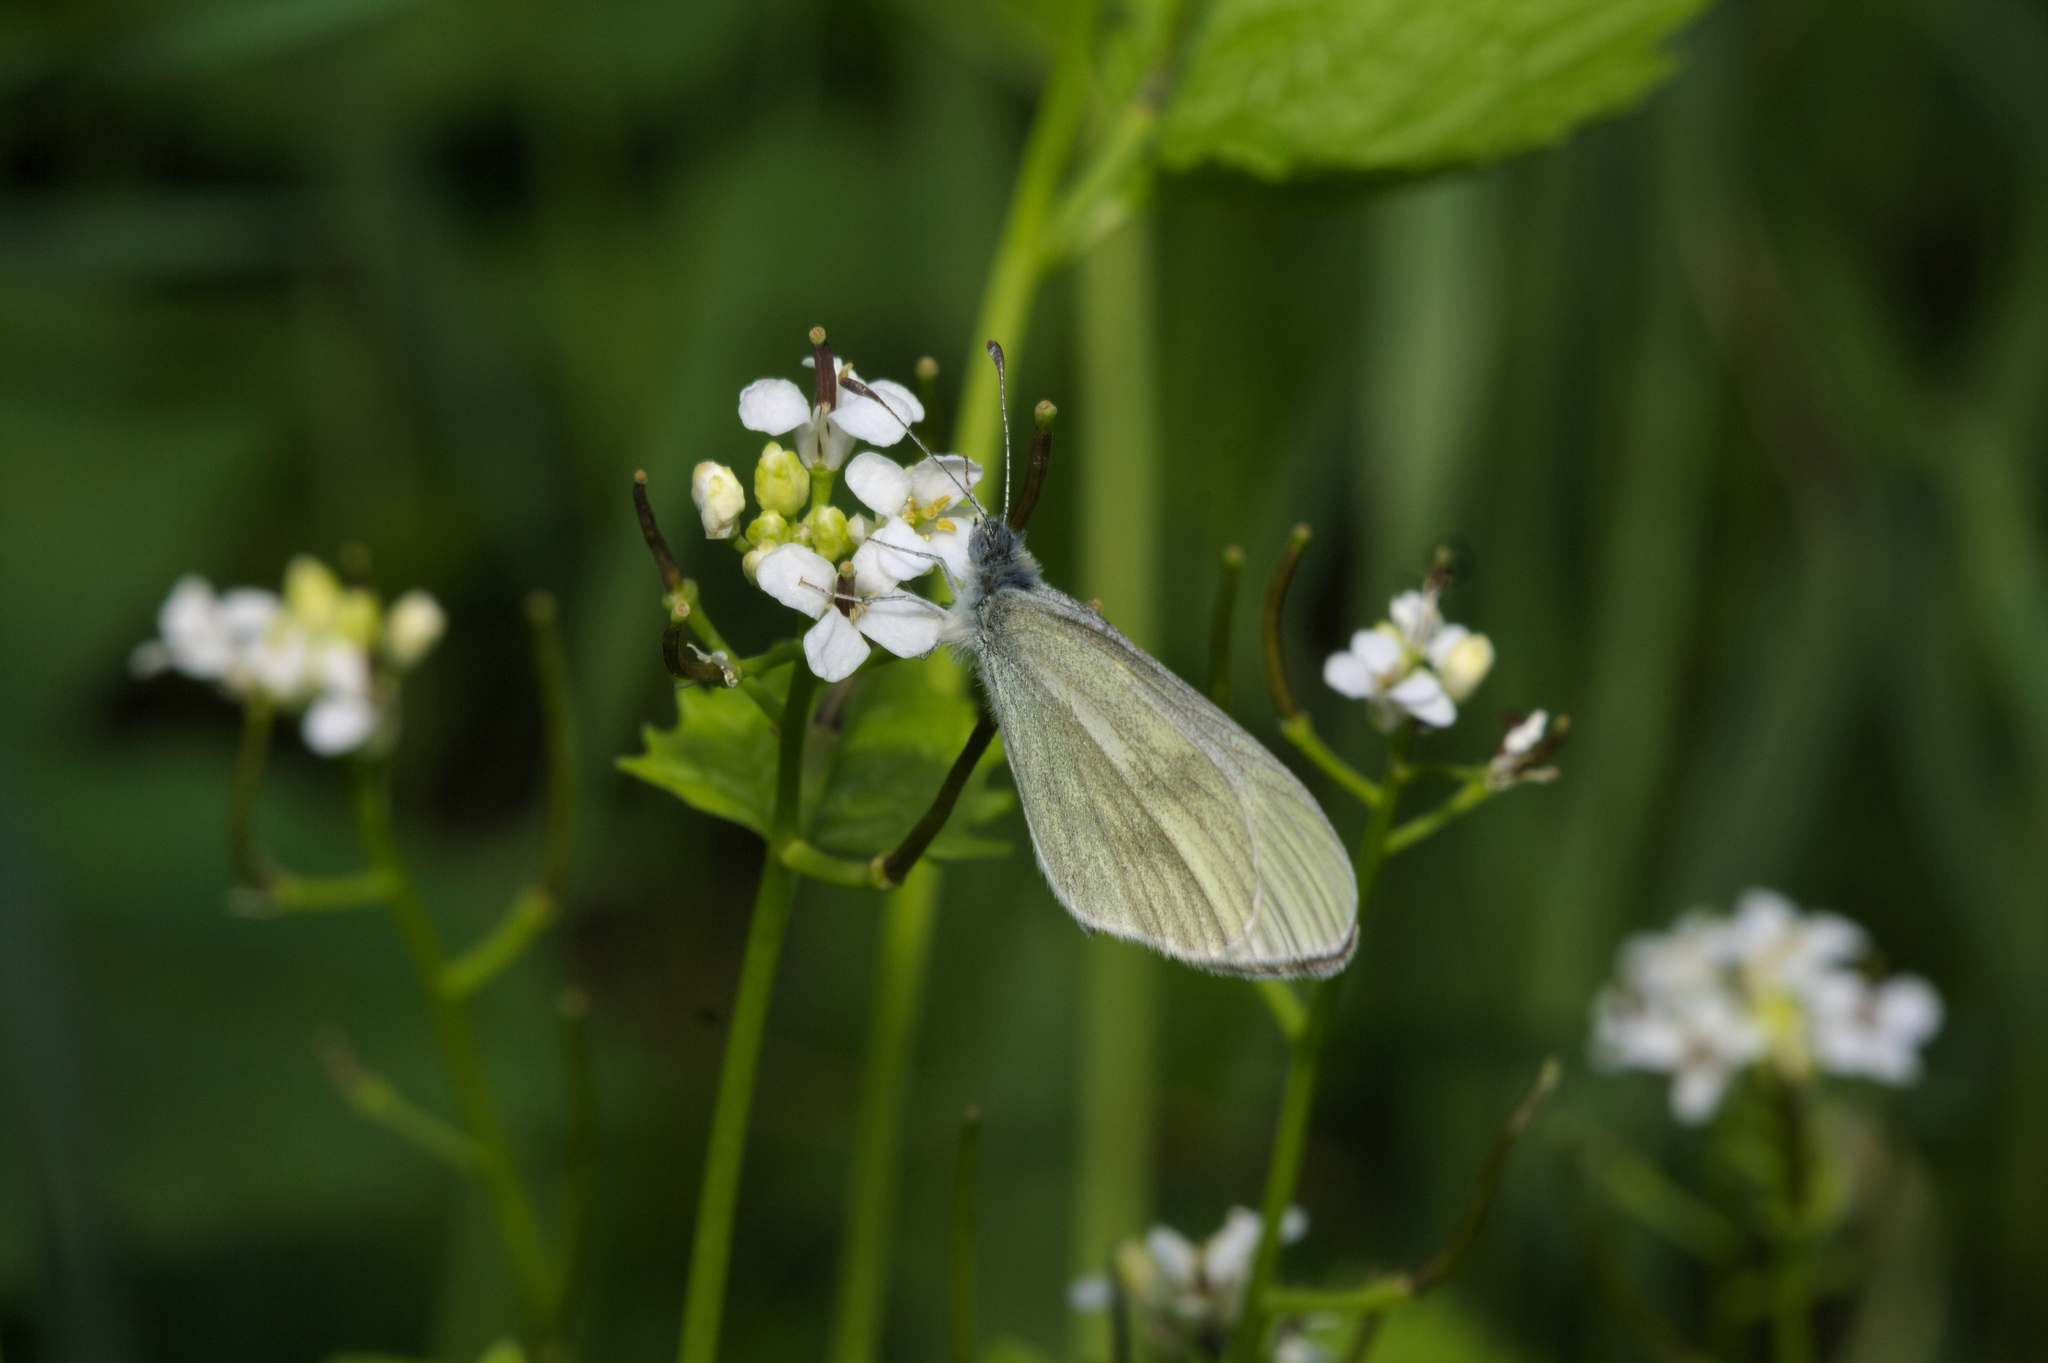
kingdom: Animalia
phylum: Arthropoda
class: Insecta
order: Lepidoptera
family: Pieridae
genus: Leptidea
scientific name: Leptidea
